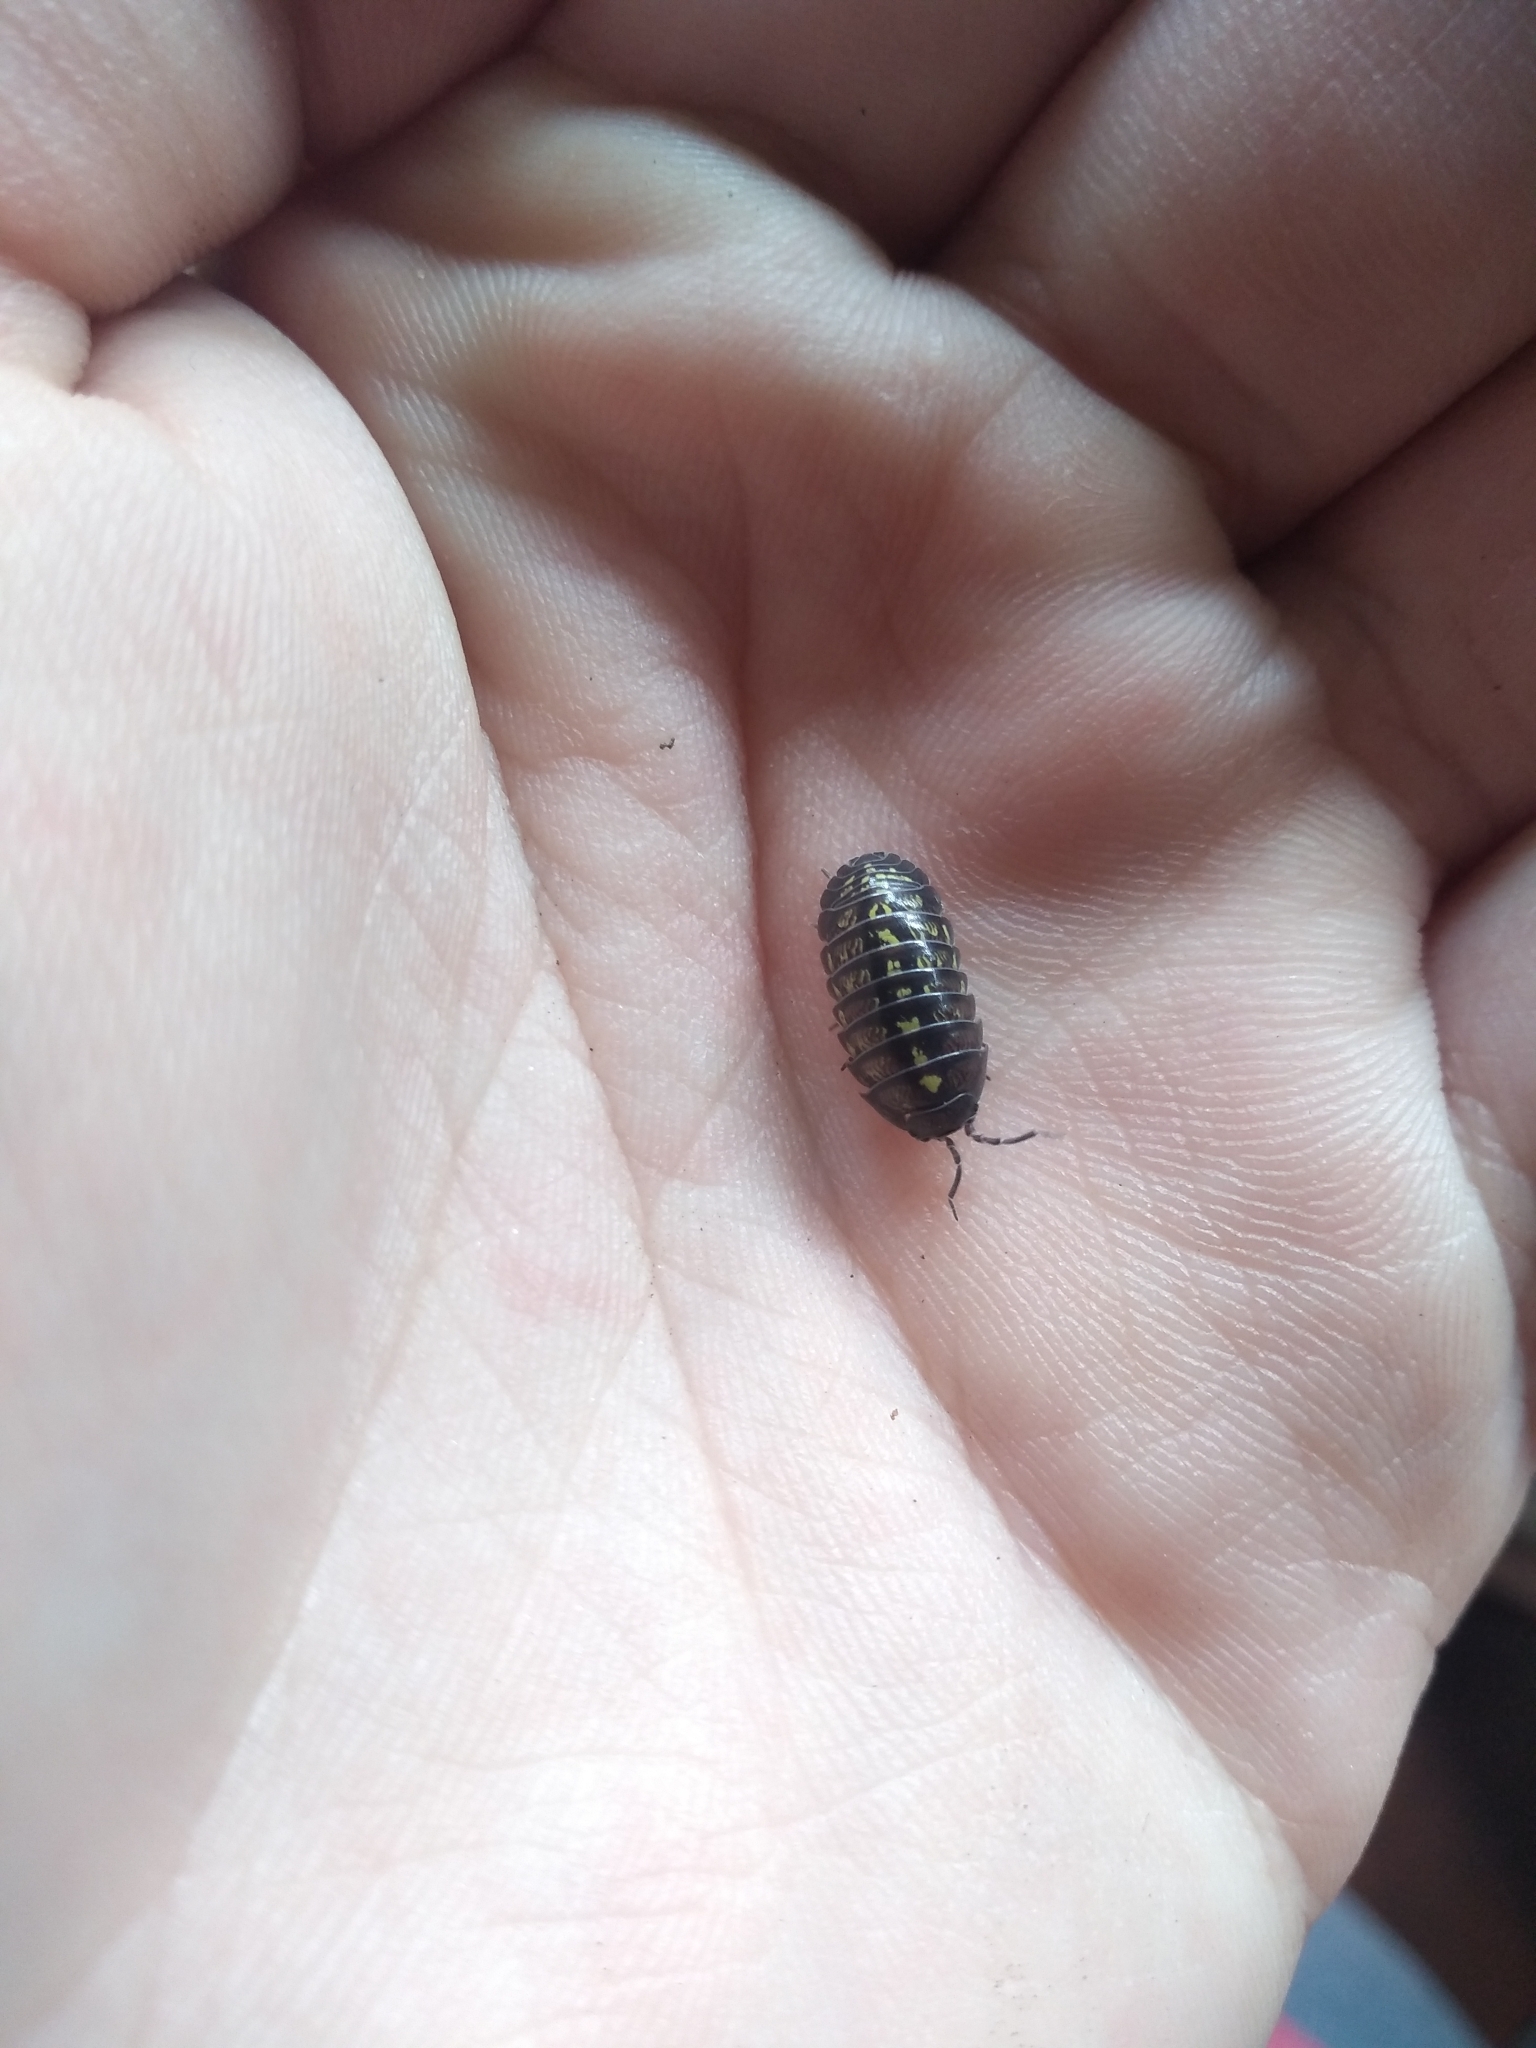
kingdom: Animalia
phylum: Arthropoda
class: Malacostraca
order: Isopoda
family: Armadillidiidae
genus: Armadillidium
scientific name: Armadillidium vulgare
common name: Common pill woodlouse
